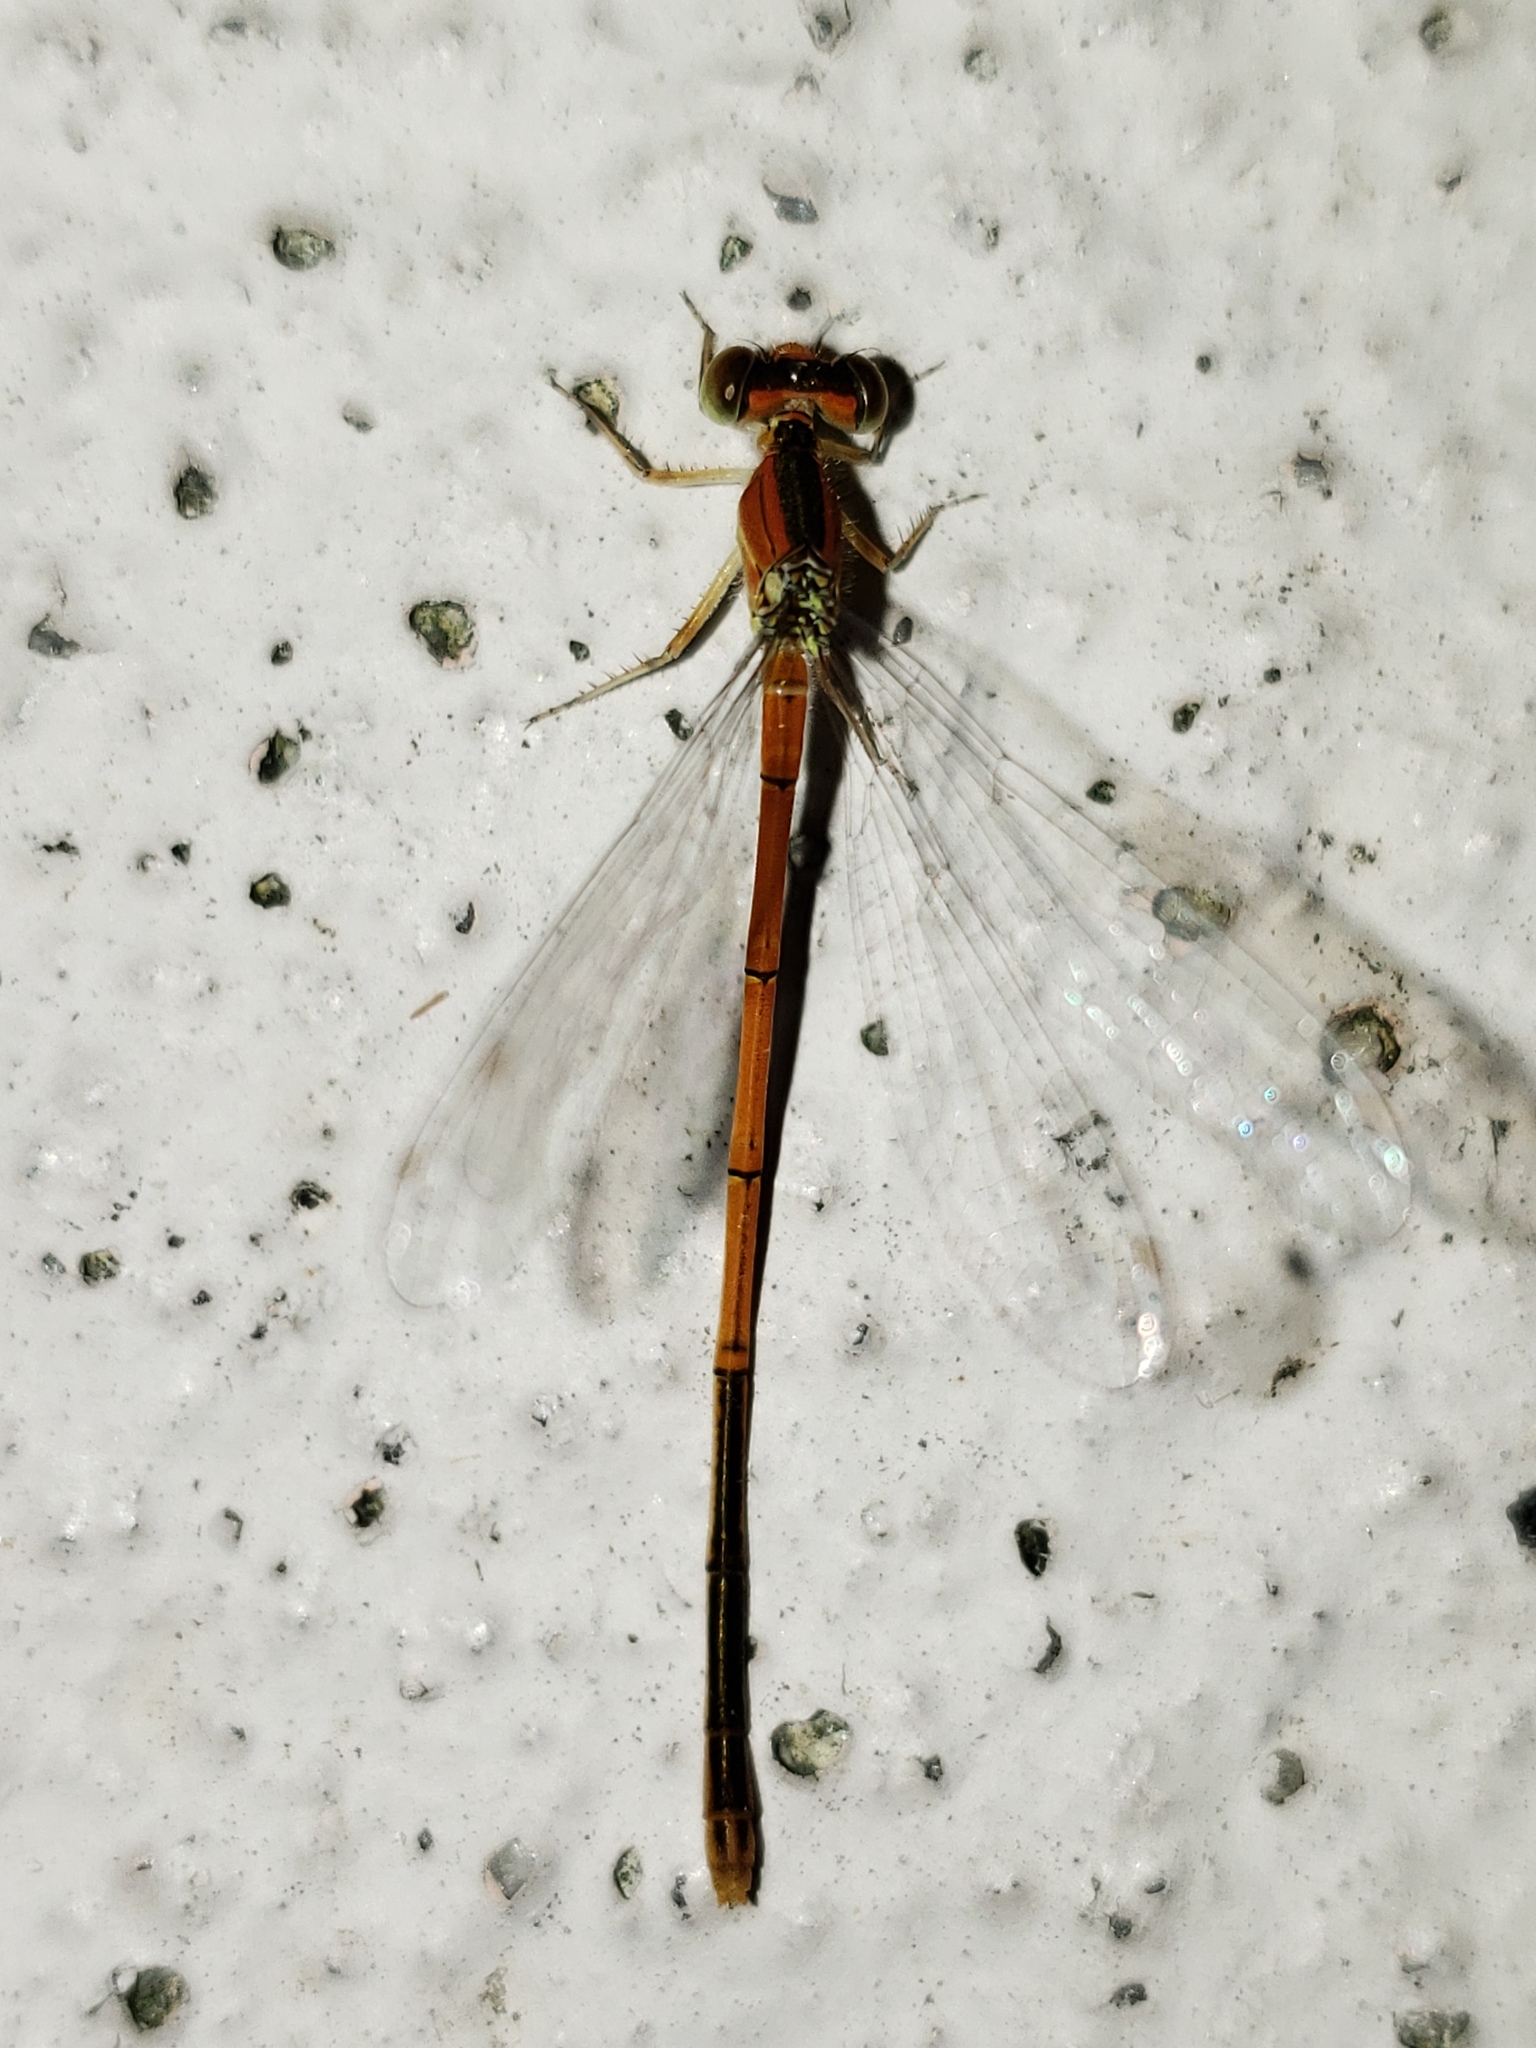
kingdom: Animalia
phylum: Arthropoda
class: Insecta
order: Odonata
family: Coenagrionidae
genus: Ischnura
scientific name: Ischnura hastata
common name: Citrine forktail
